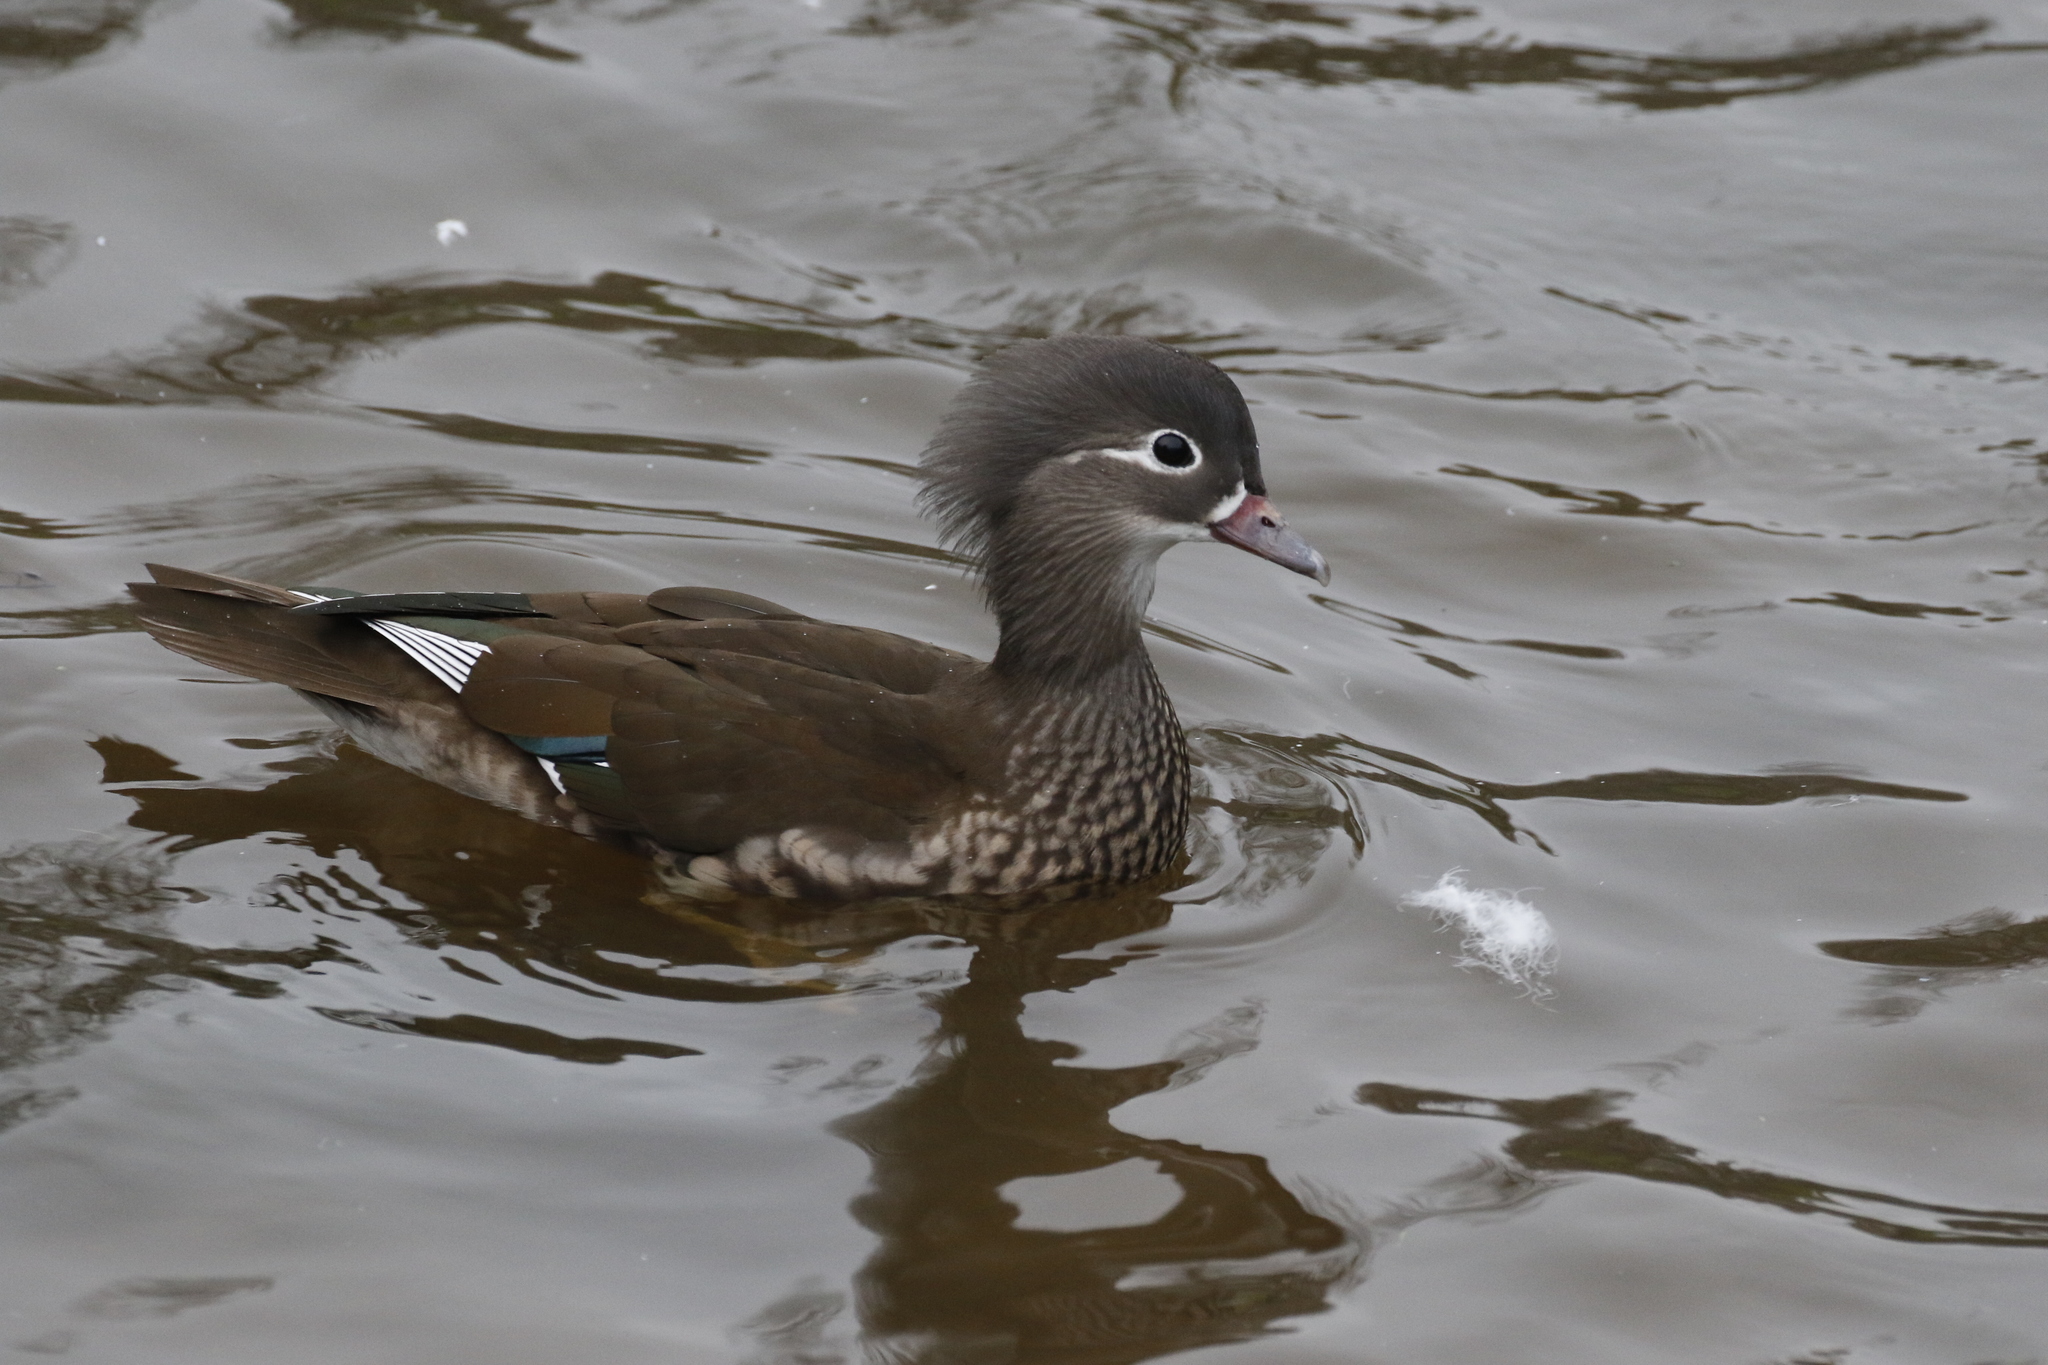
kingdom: Animalia
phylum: Chordata
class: Aves
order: Anseriformes
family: Anatidae
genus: Aix
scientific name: Aix galericulata
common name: Mandarin duck
